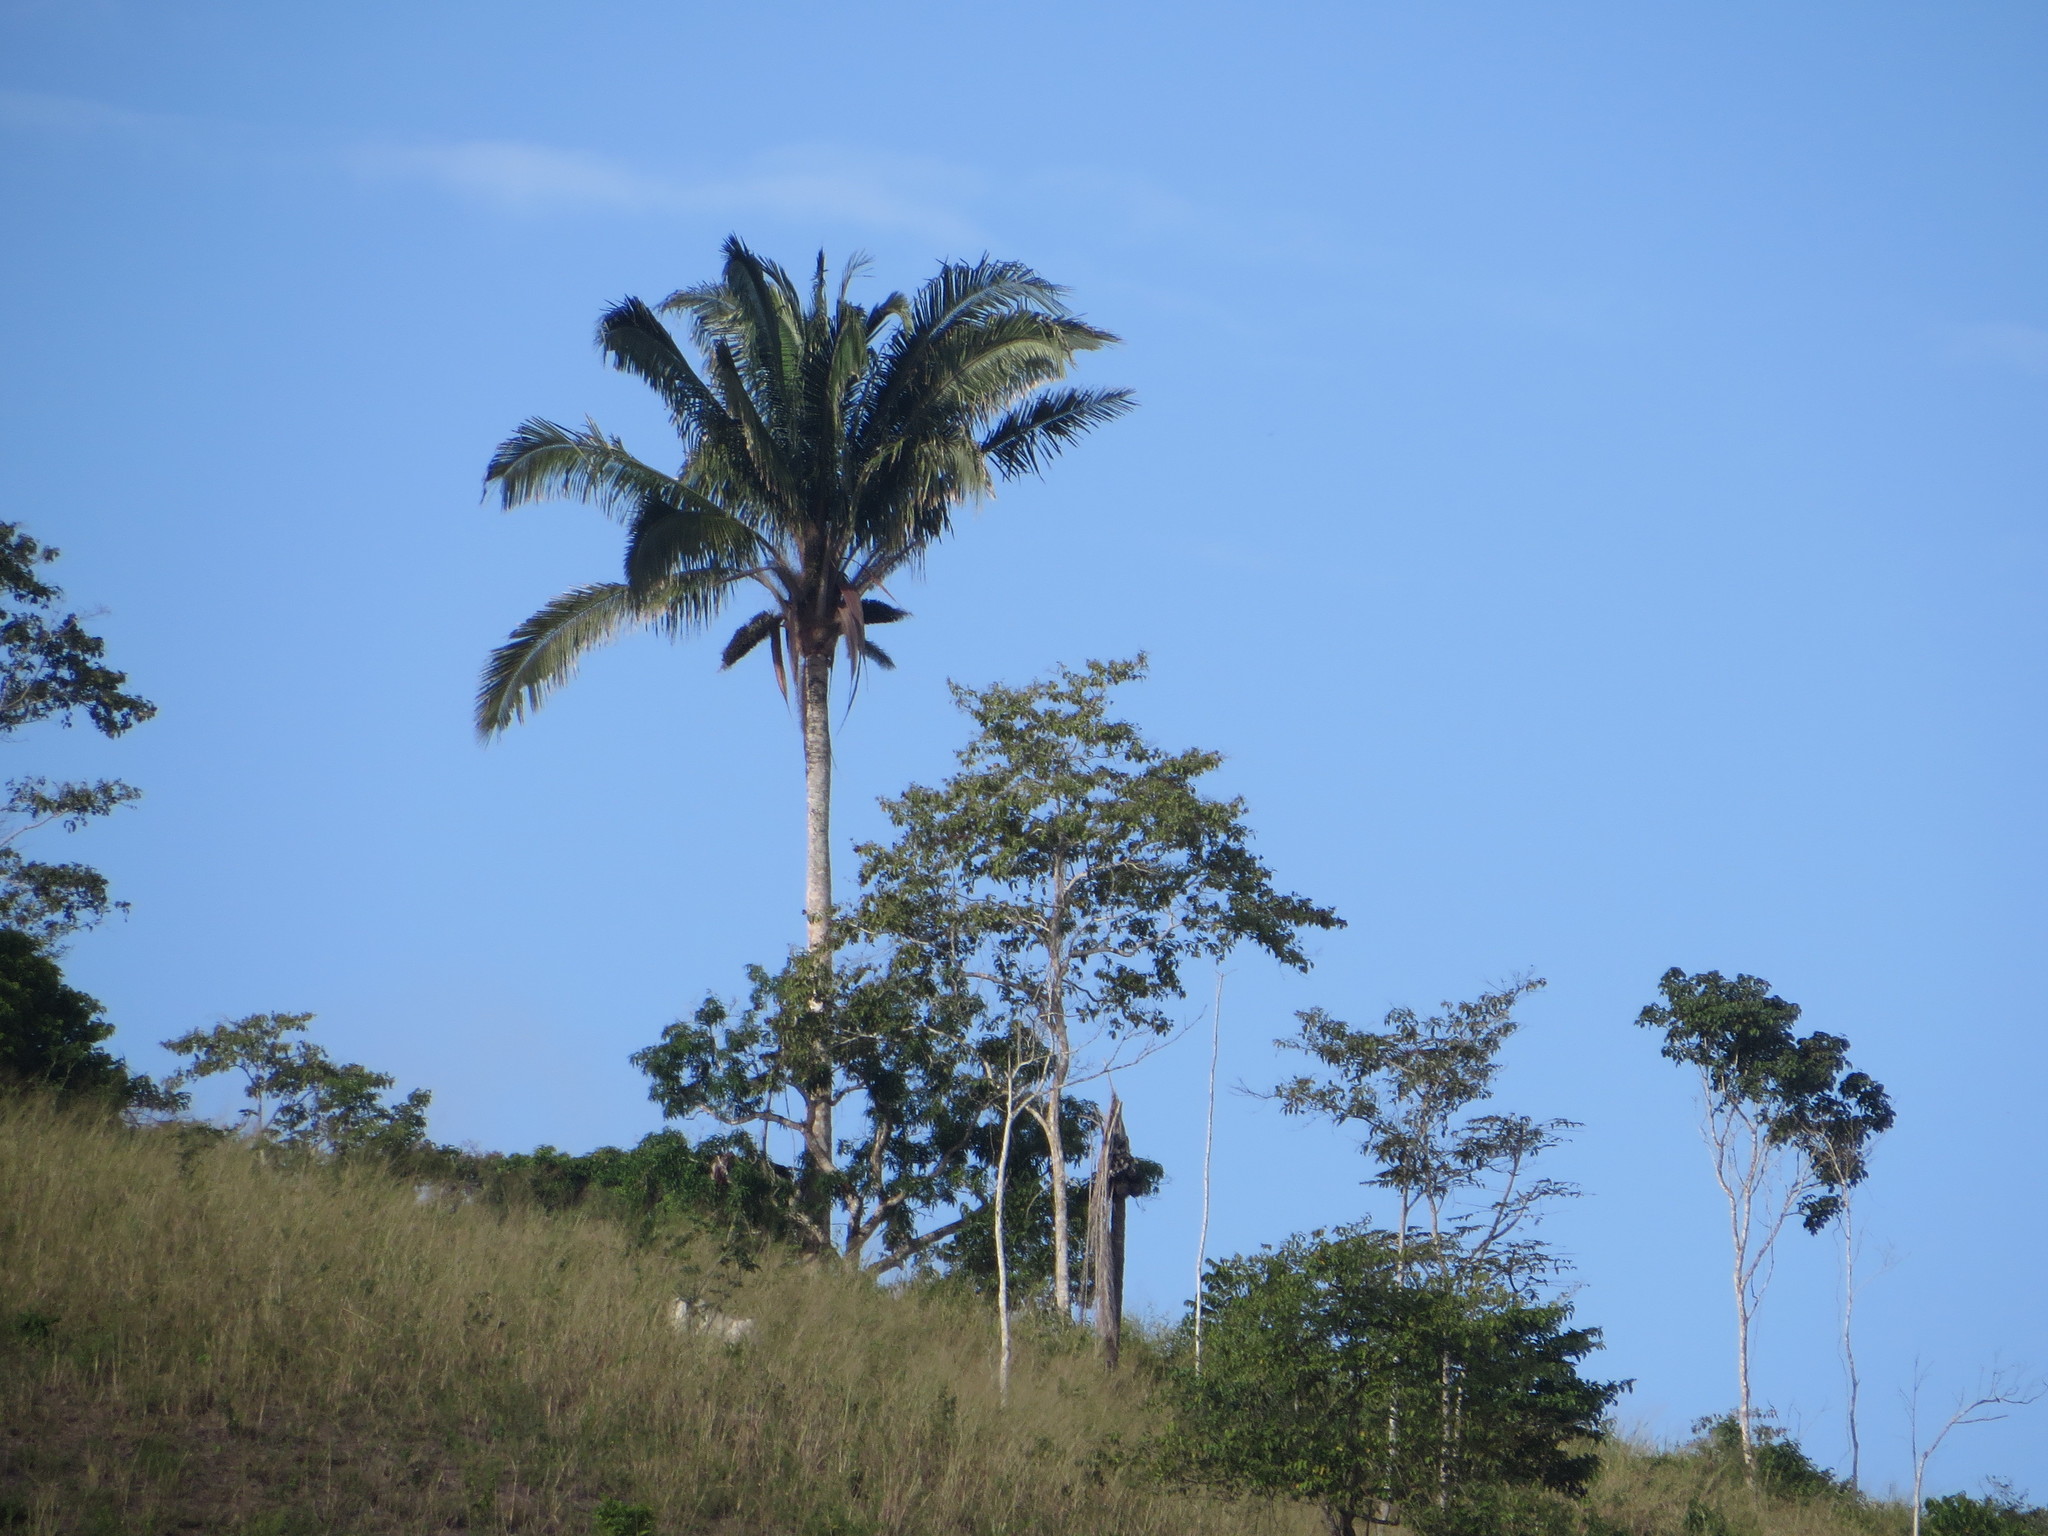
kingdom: Plantae
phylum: Tracheophyta
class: Liliopsida
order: Arecales
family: Arecaceae
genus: Attalea
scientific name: Attalea colenda
